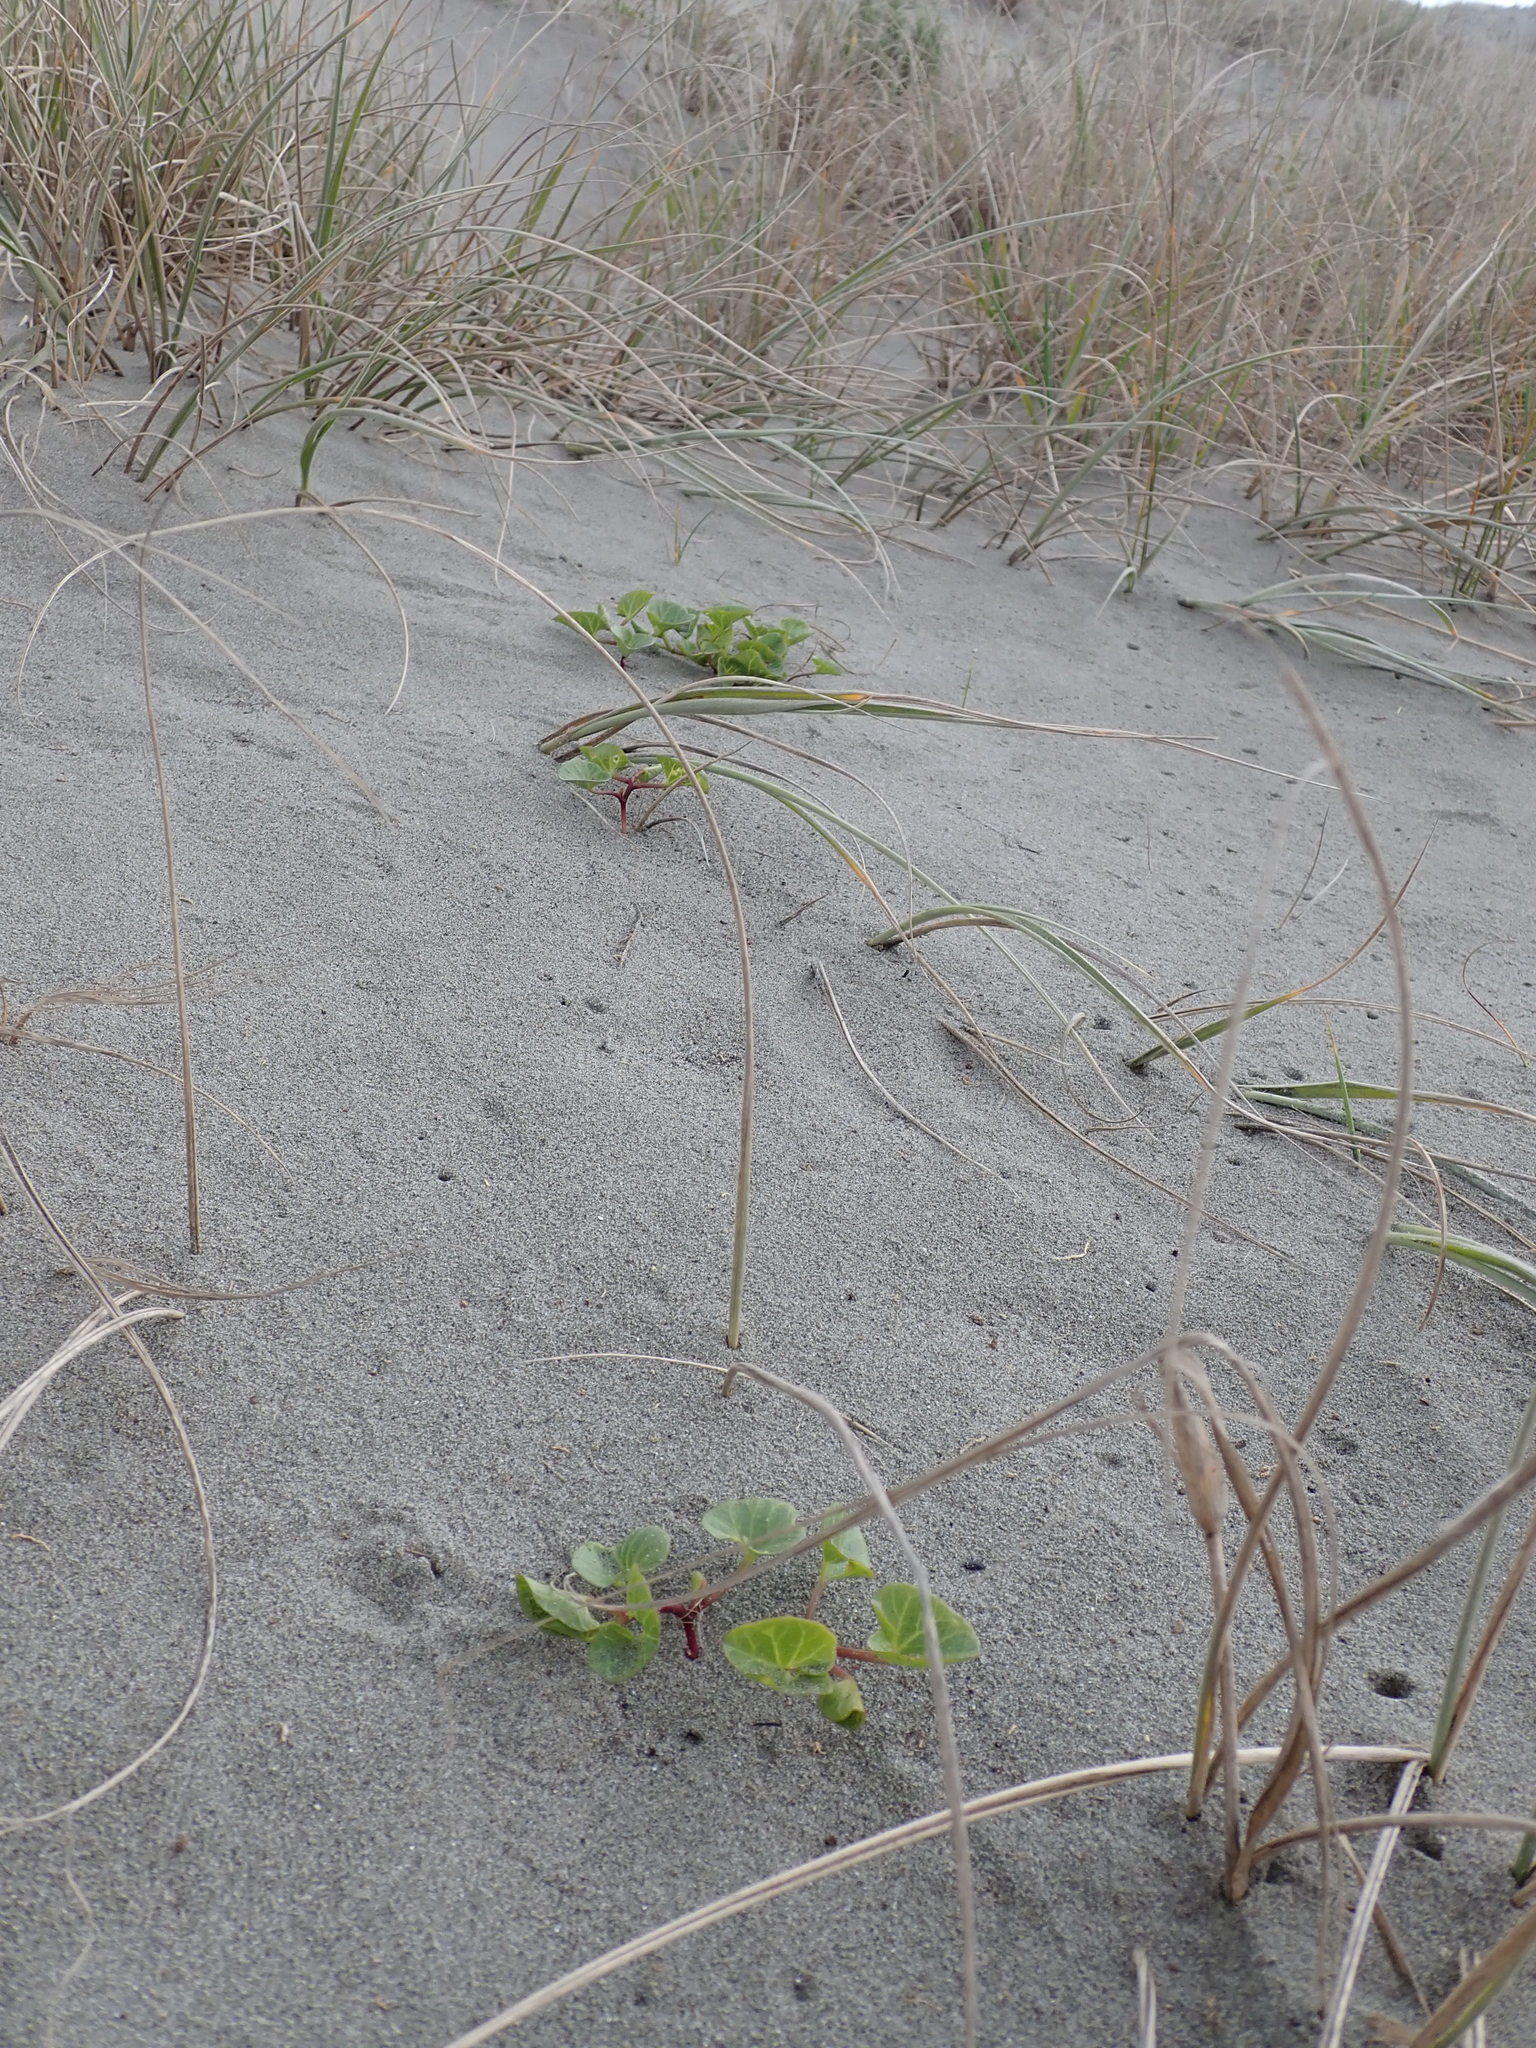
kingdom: Plantae
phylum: Tracheophyta
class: Magnoliopsida
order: Solanales
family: Convolvulaceae
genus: Calystegia
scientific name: Calystegia soldanella
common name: Sea bindweed
